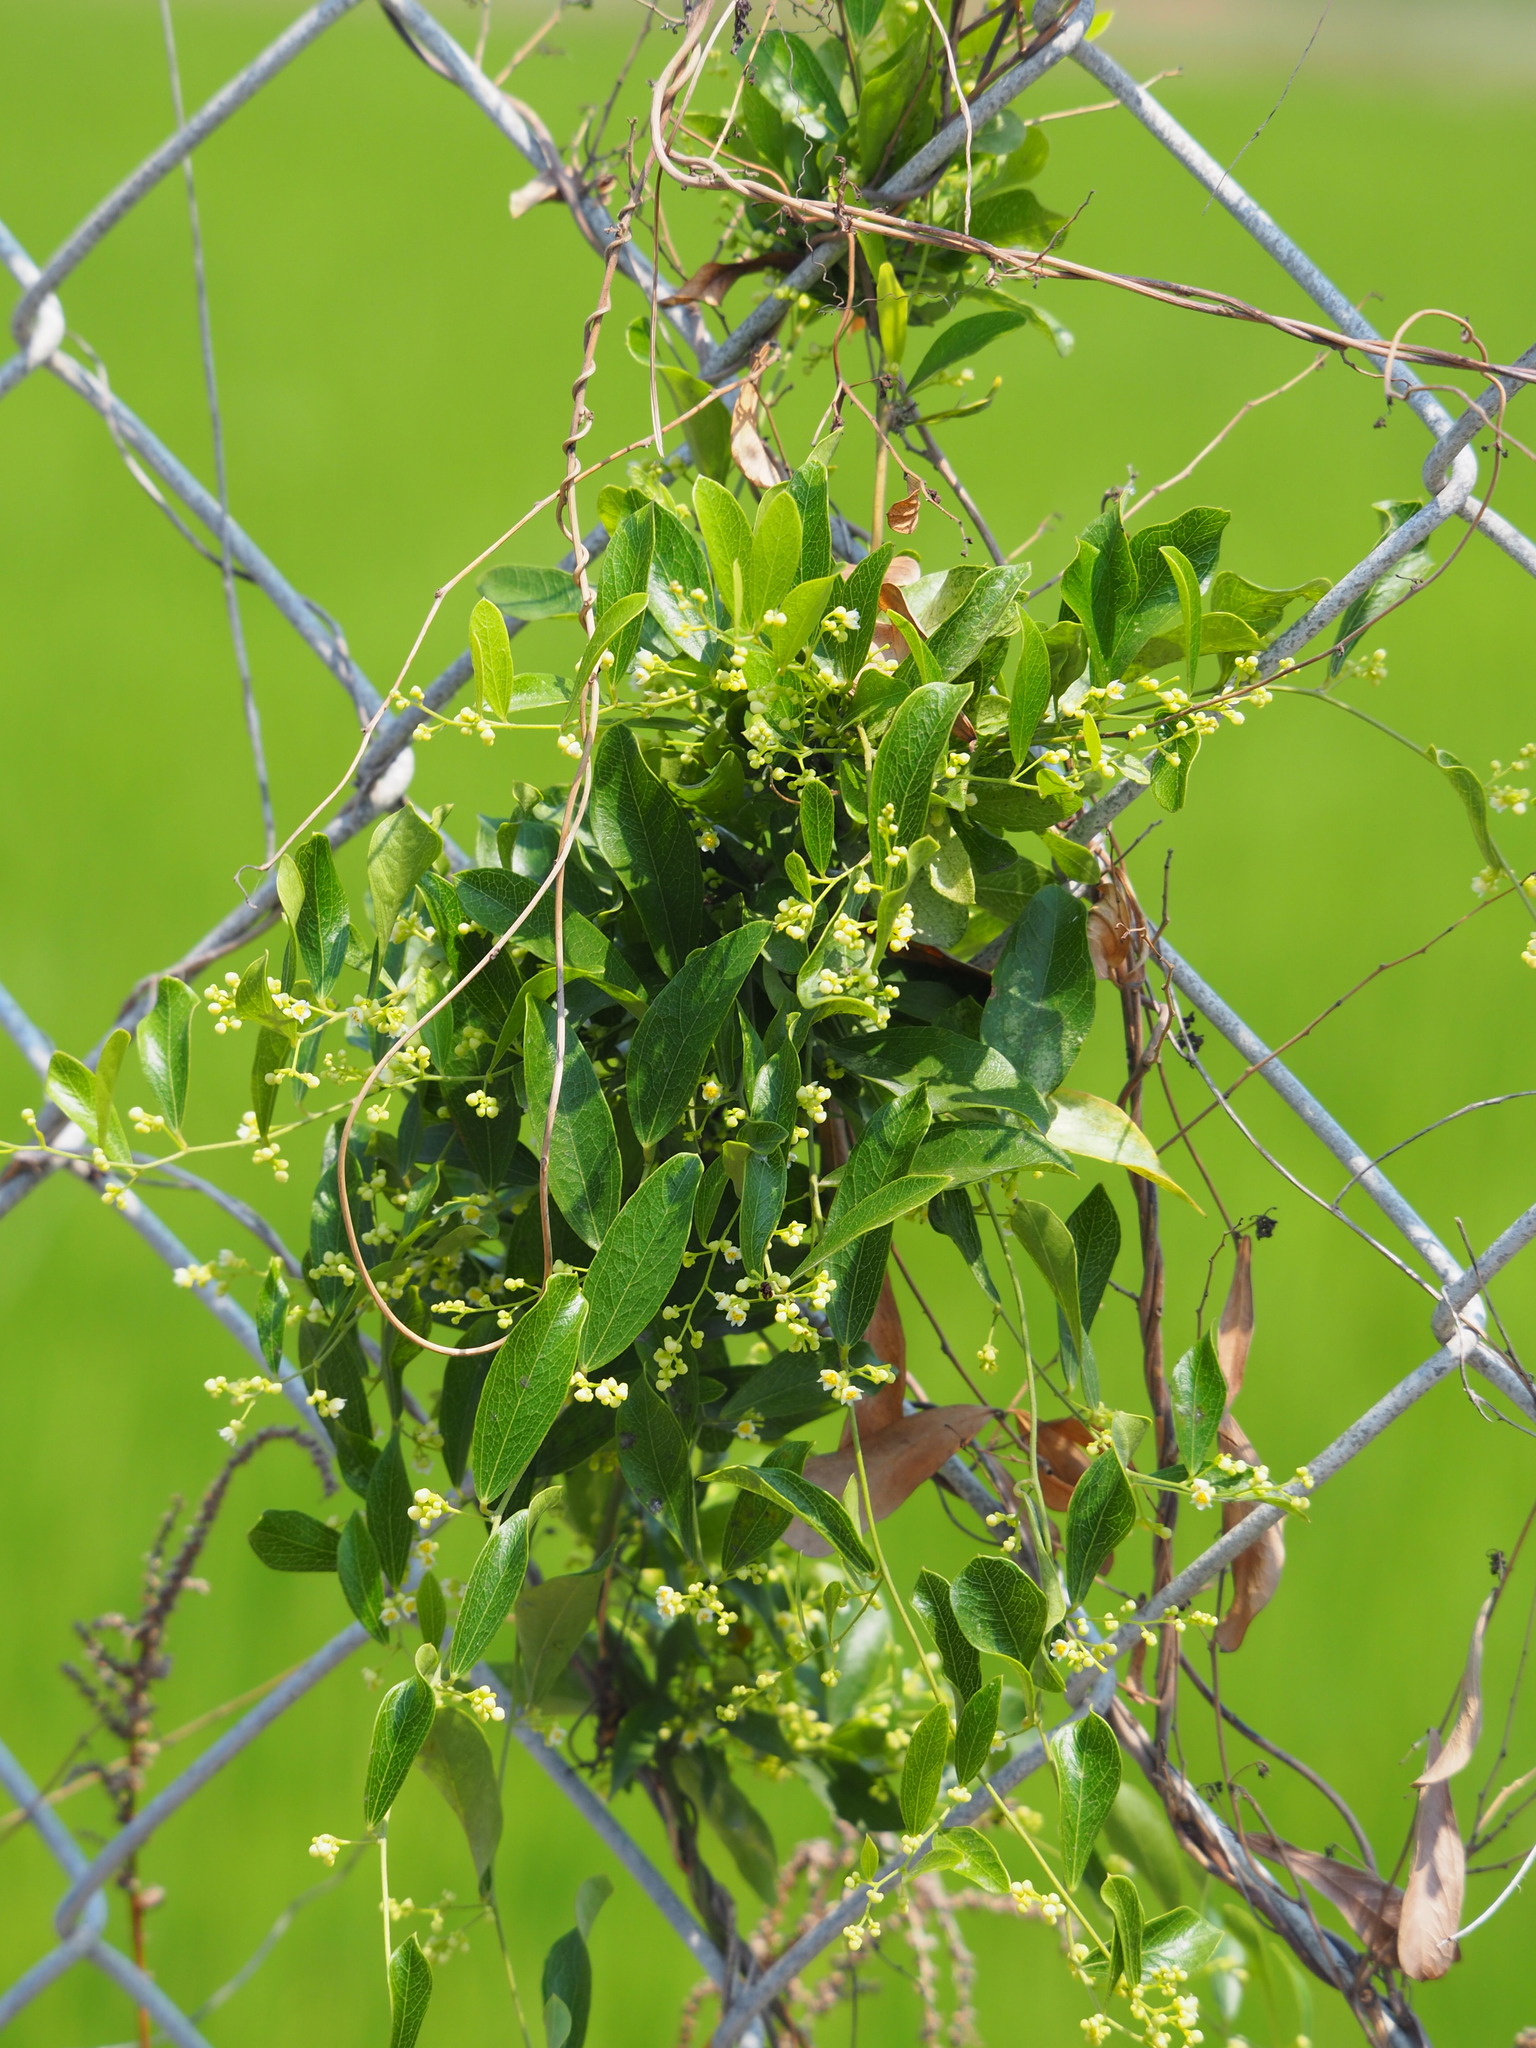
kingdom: Plantae
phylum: Tracheophyta
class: Magnoliopsida
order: Ranunculales
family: Menispermaceae
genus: Cocculus
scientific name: Cocculus orbiculatus
